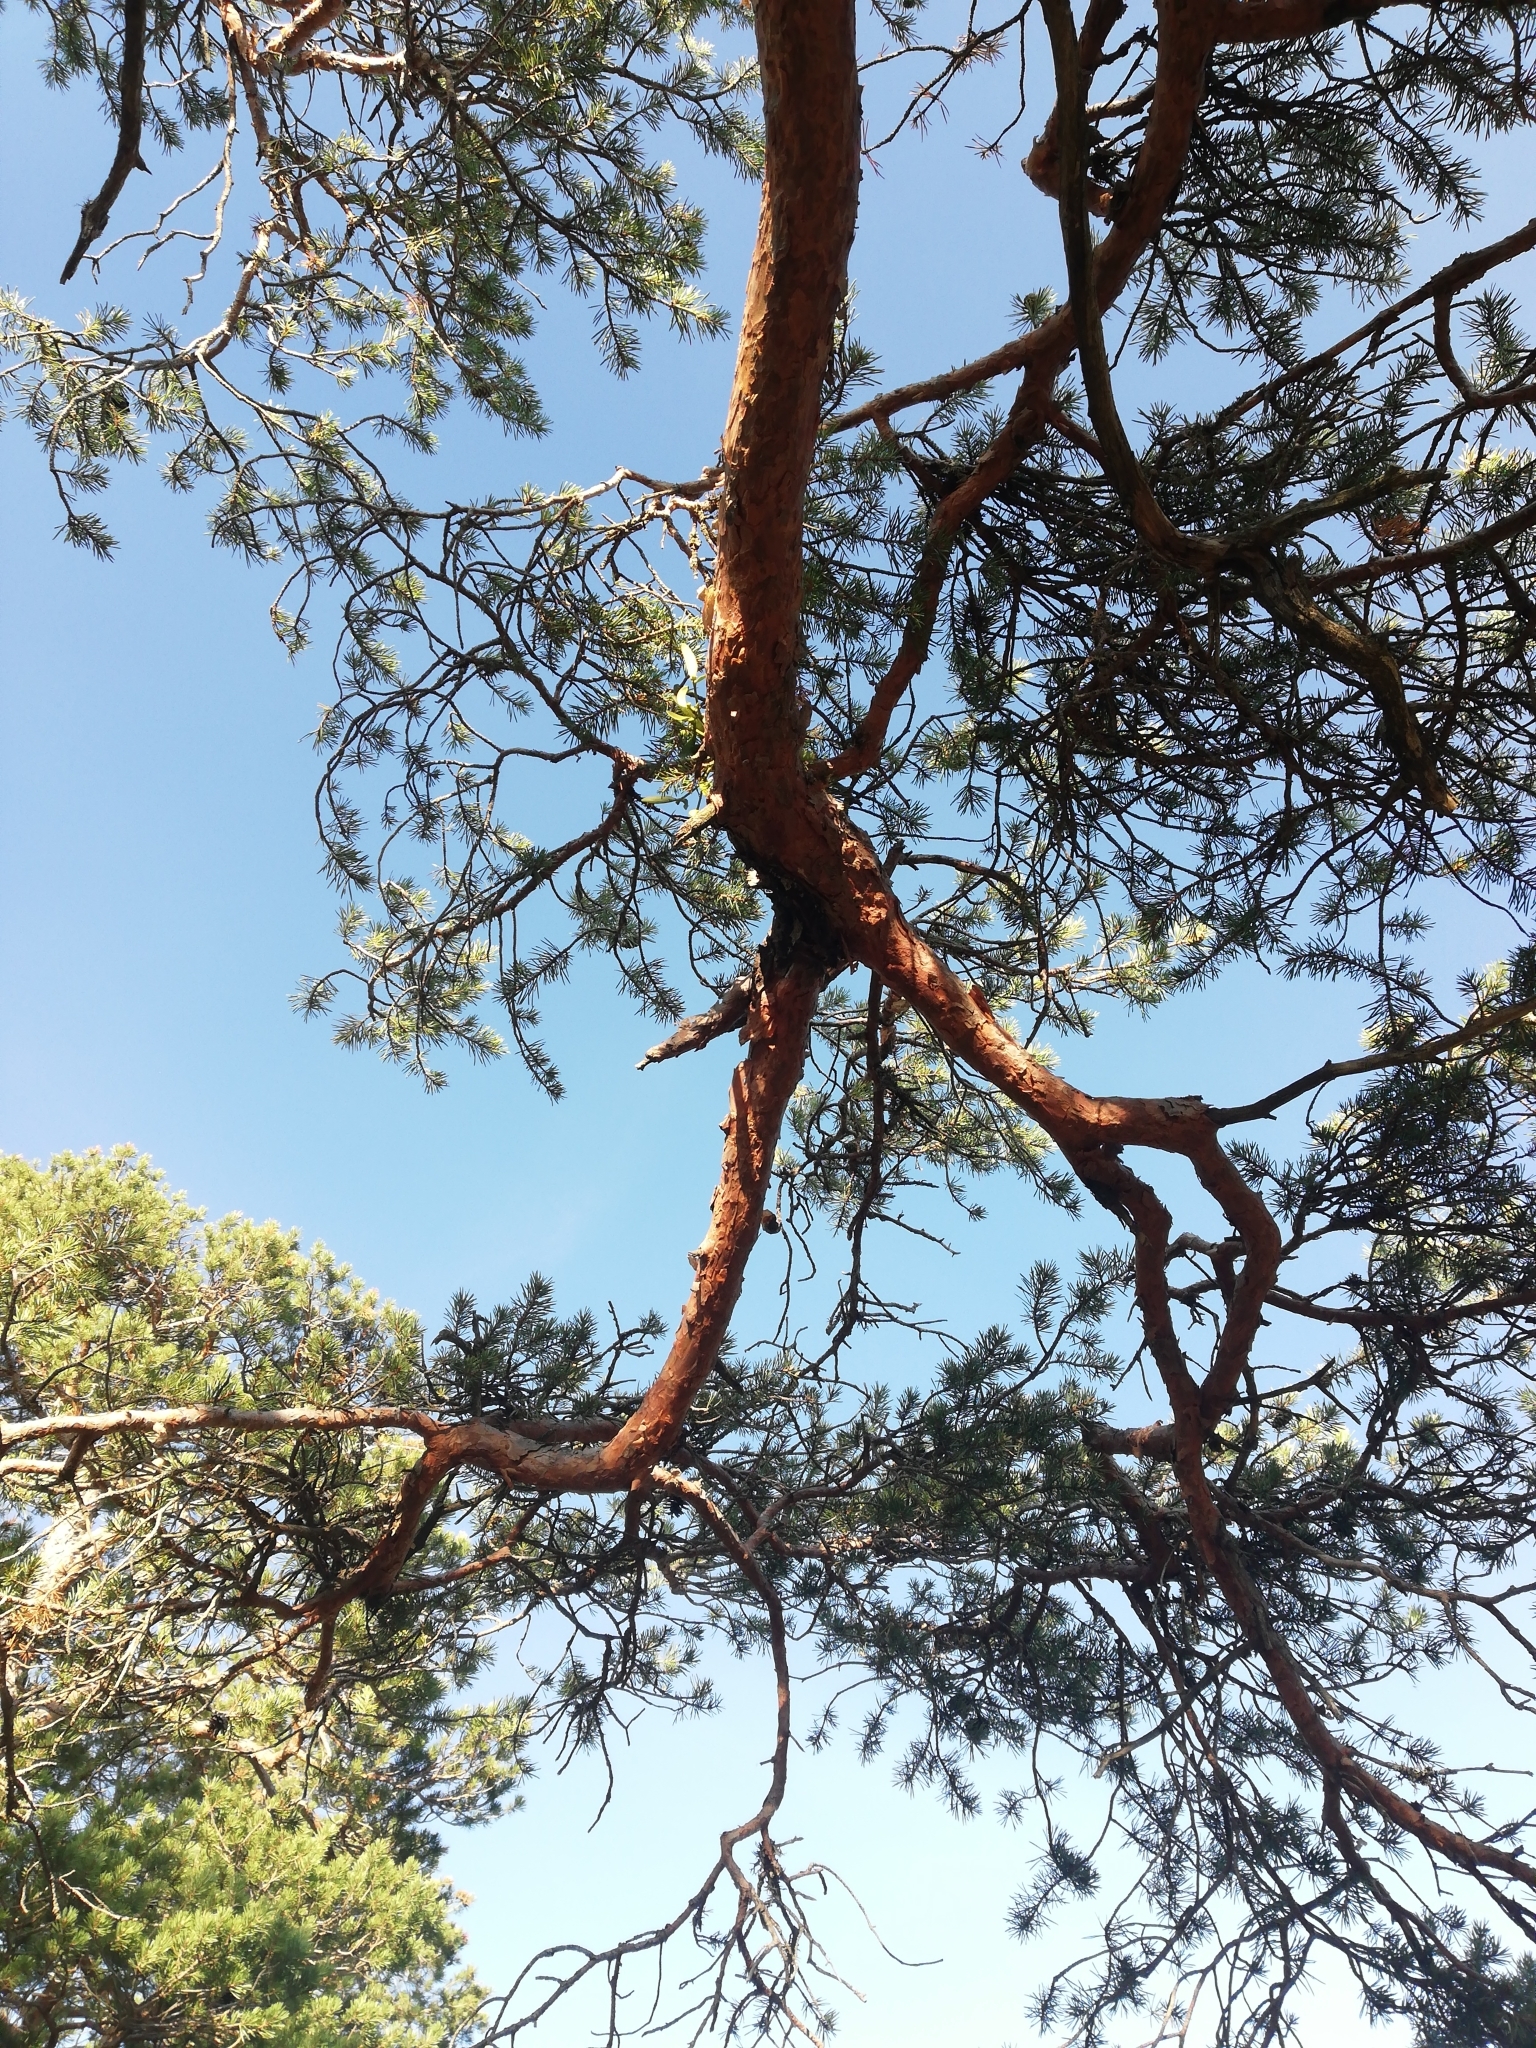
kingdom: Plantae
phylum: Tracheophyta
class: Pinopsida
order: Pinales
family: Pinaceae
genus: Pinus
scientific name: Pinus sylvestris
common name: Scots pine
